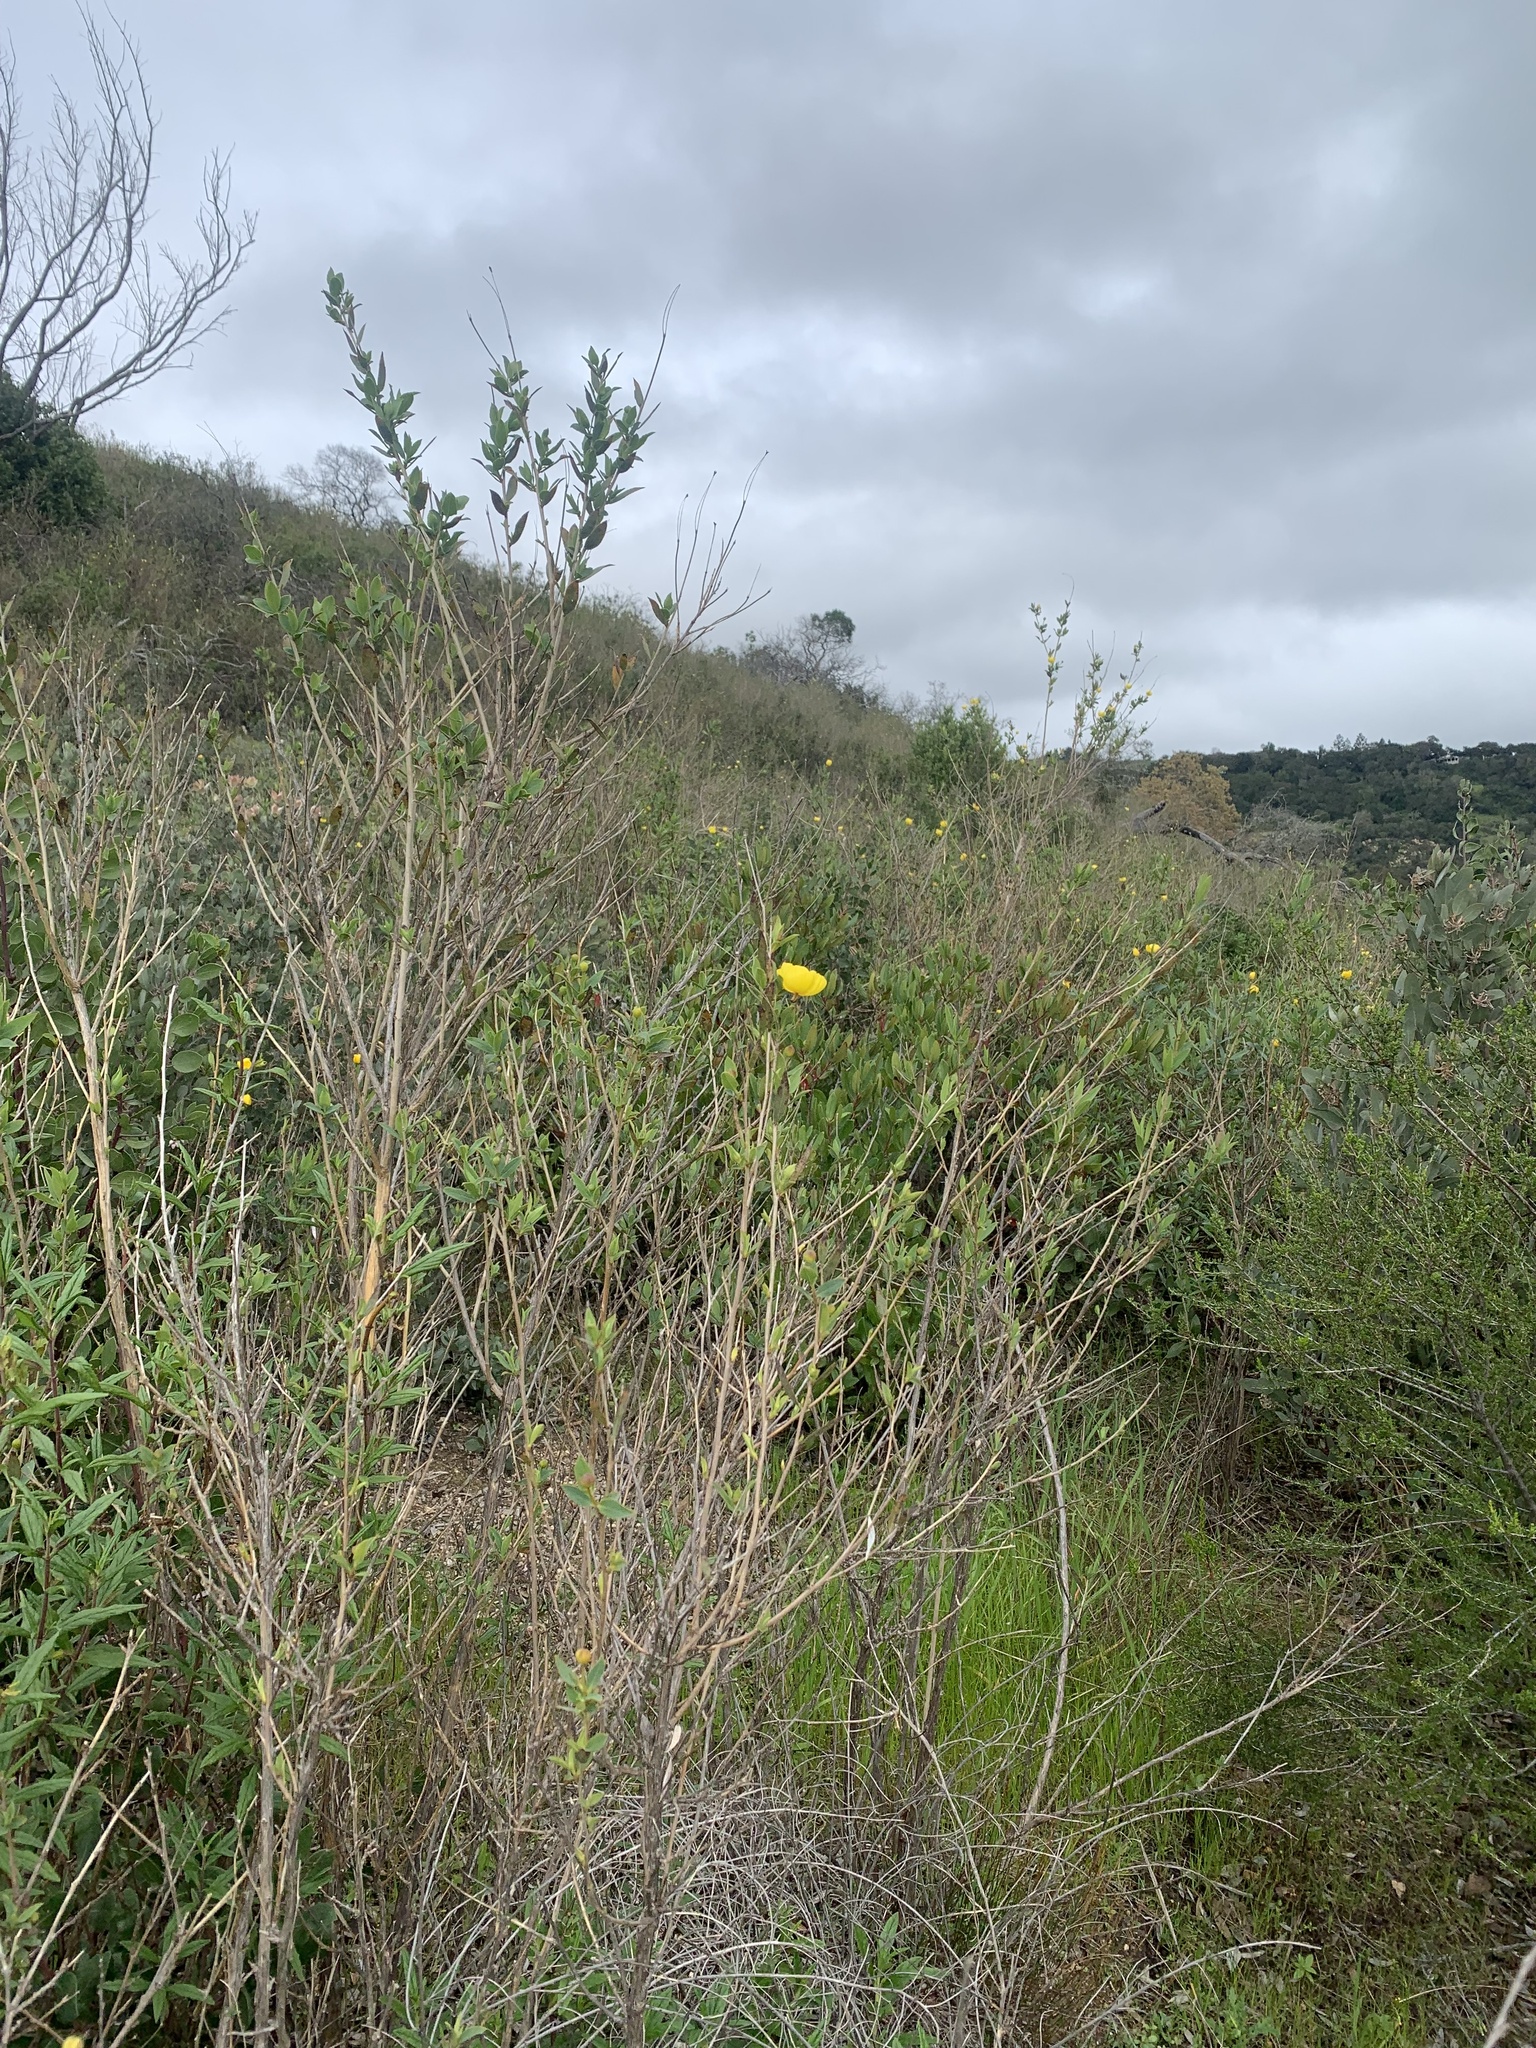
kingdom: Plantae
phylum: Tracheophyta
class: Magnoliopsida
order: Ranunculales
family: Papaveraceae
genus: Dendromecon
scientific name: Dendromecon rigida
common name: Tree poppy
